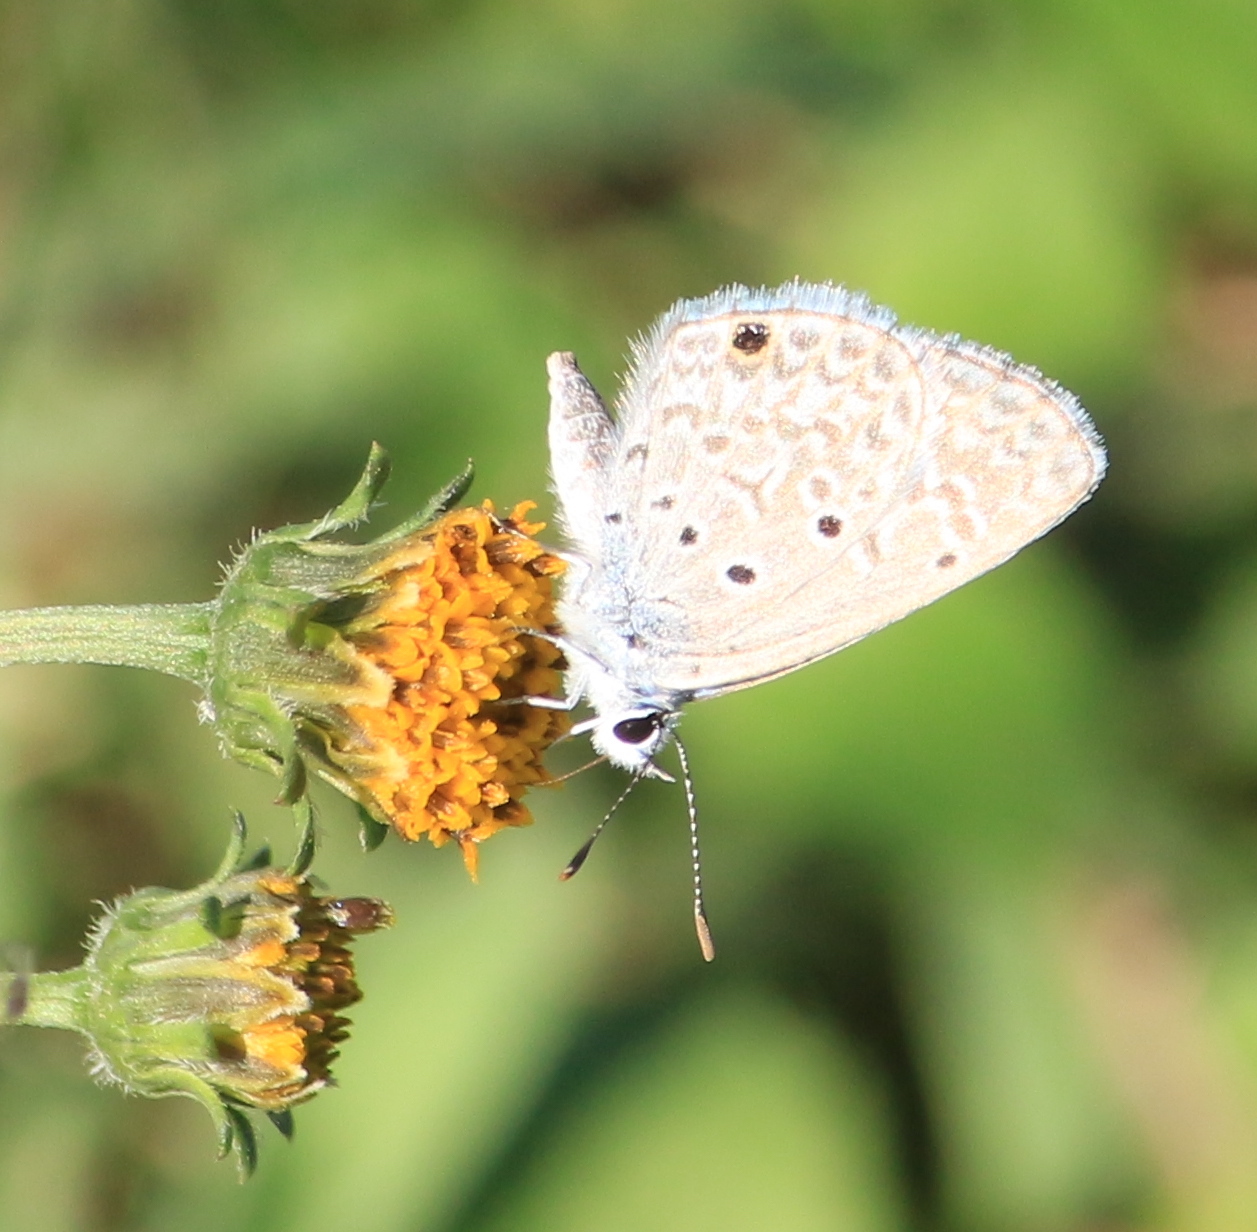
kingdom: Animalia
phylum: Arthropoda
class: Insecta
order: Lepidoptera
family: Lycaenidae
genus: Hemiargus
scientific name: Hemiargus hanno
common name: Common blue
